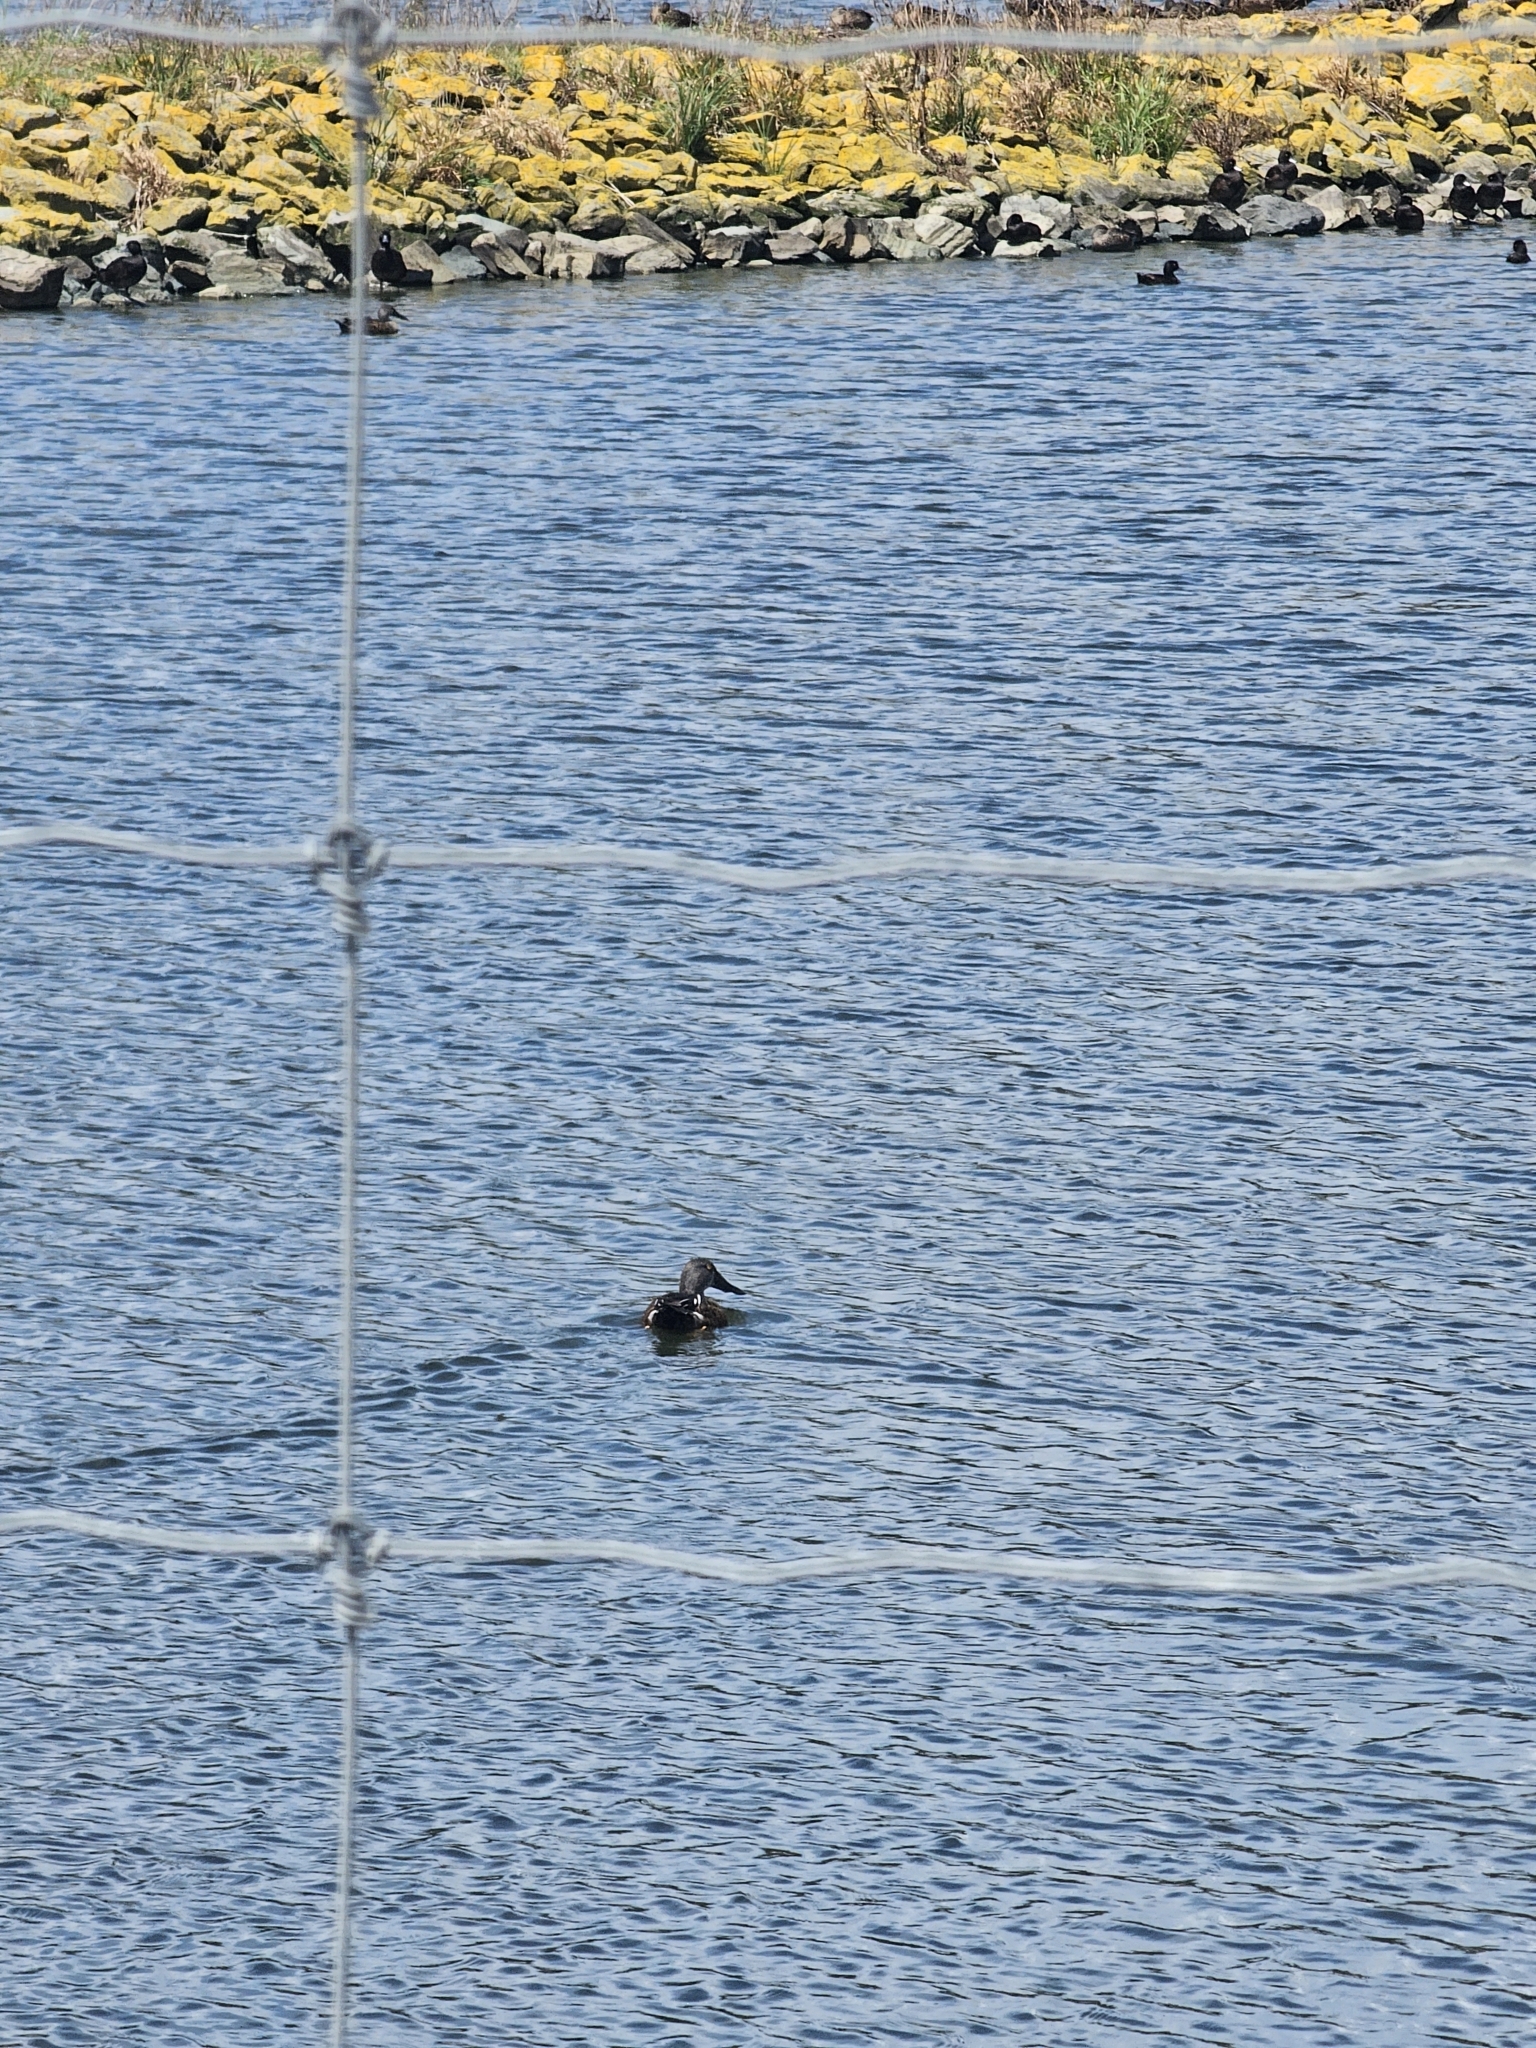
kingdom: Animalia
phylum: Chordata
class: Aves
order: Anseriformes
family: Anatidae
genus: Spatula
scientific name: Spatula rhynchotis
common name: Australian shoveler
